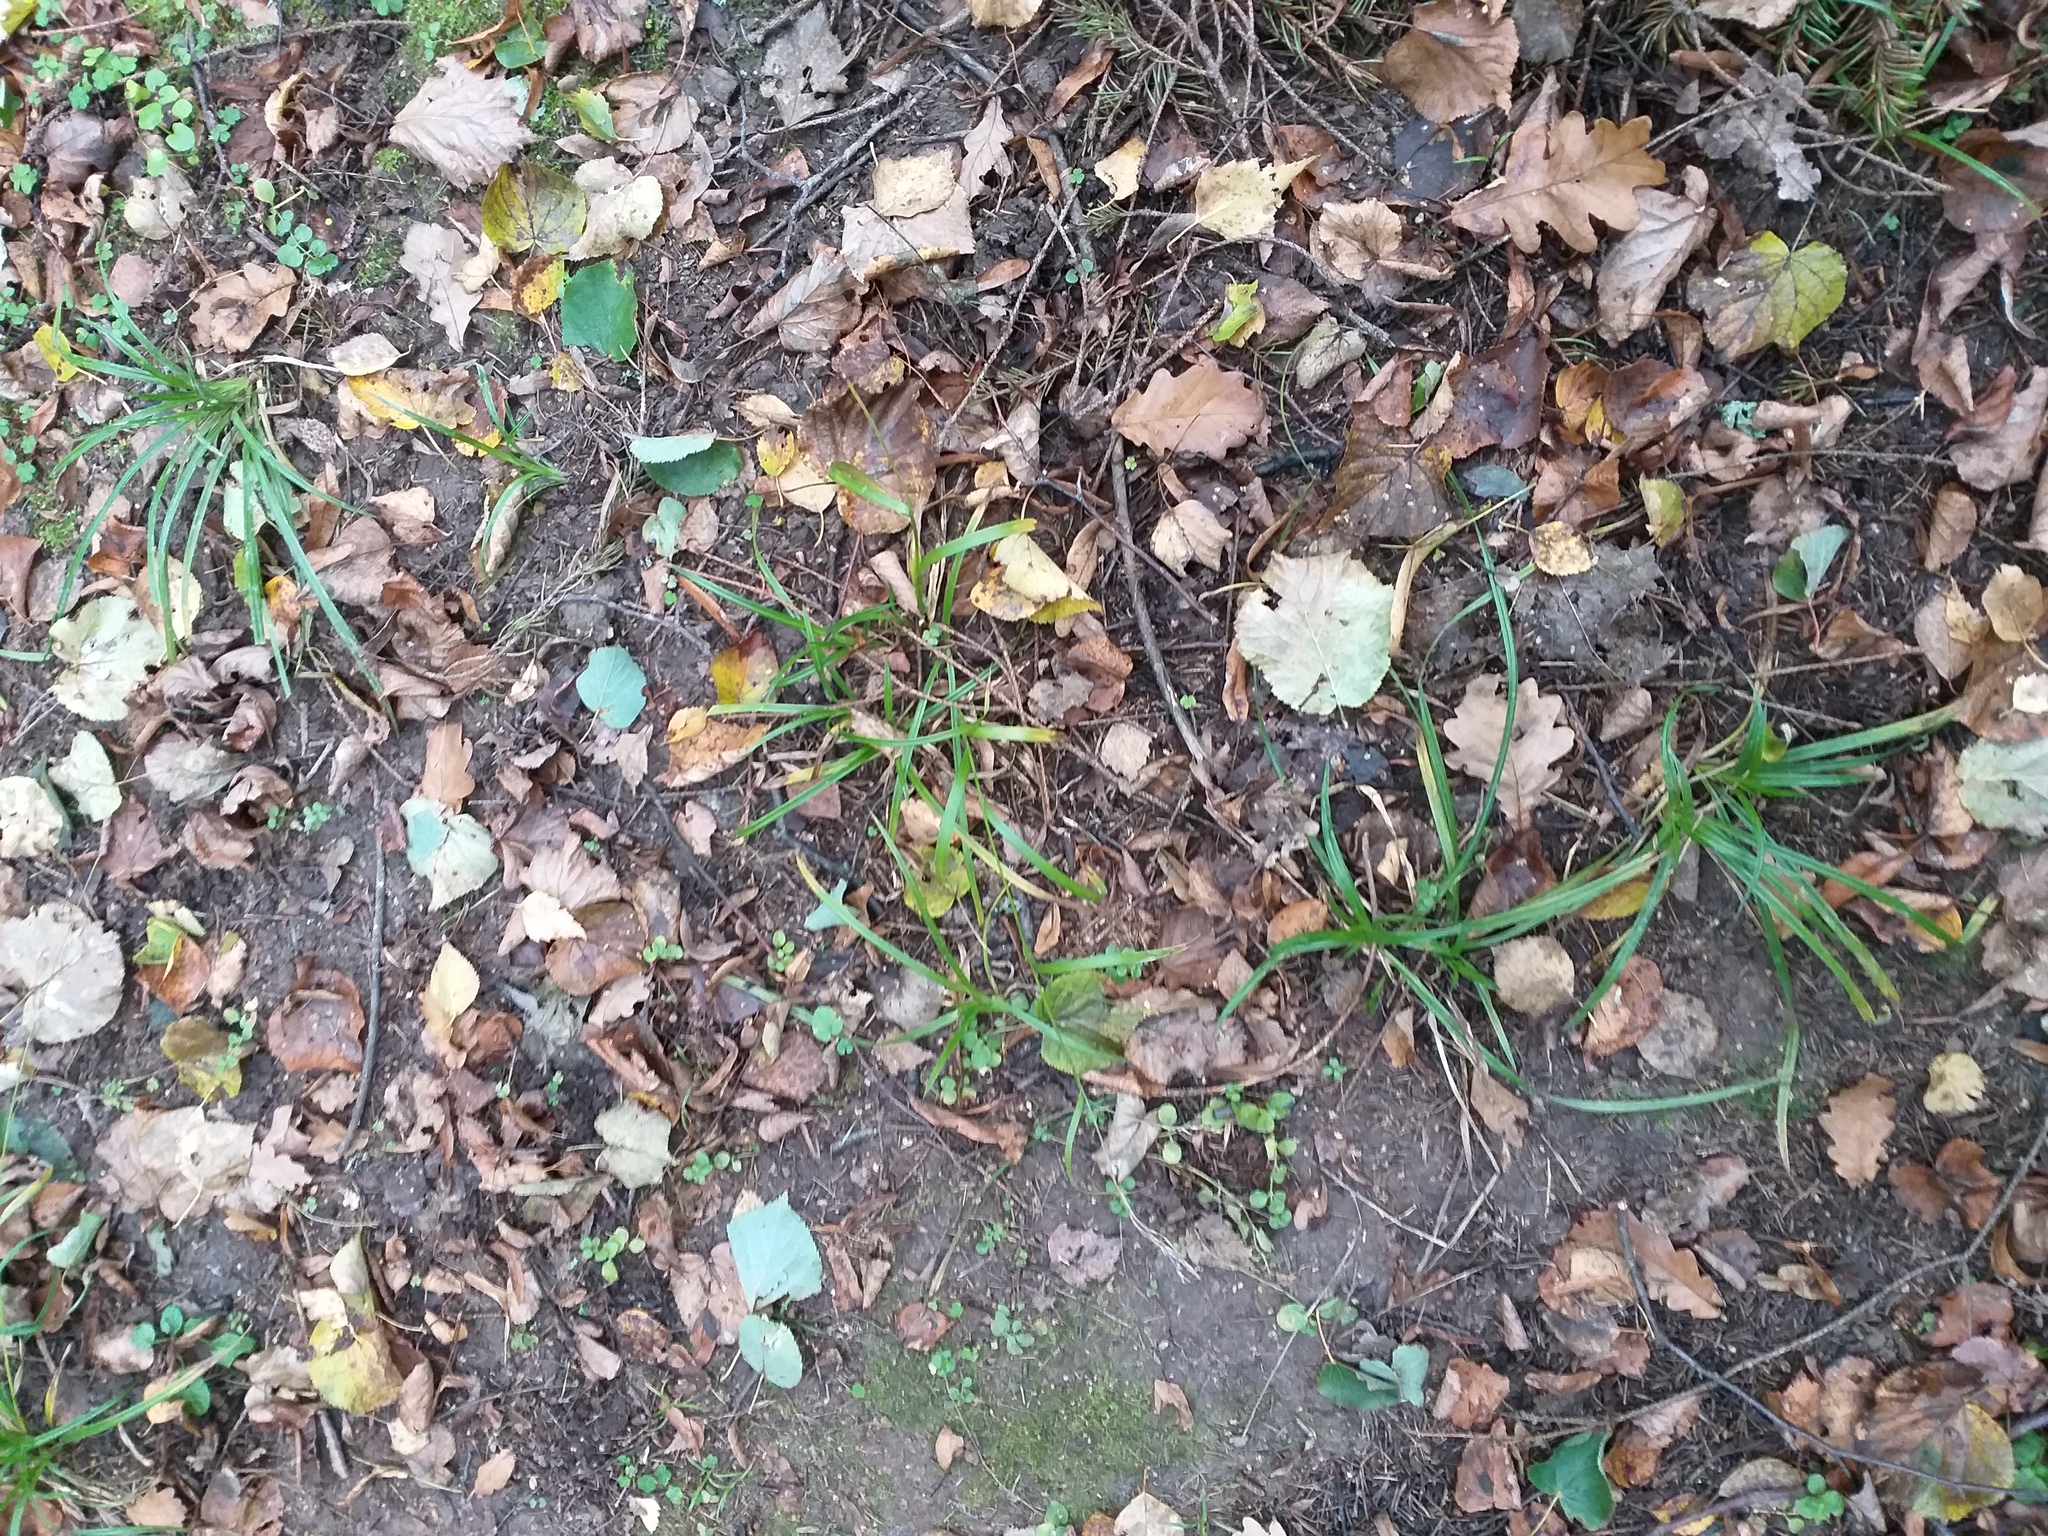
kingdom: Plantae
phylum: Tracheophyta
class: Liliopsida
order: Poales
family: Cyperaceae
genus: Carex
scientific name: Carex sylvatica
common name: Wood-sedge
